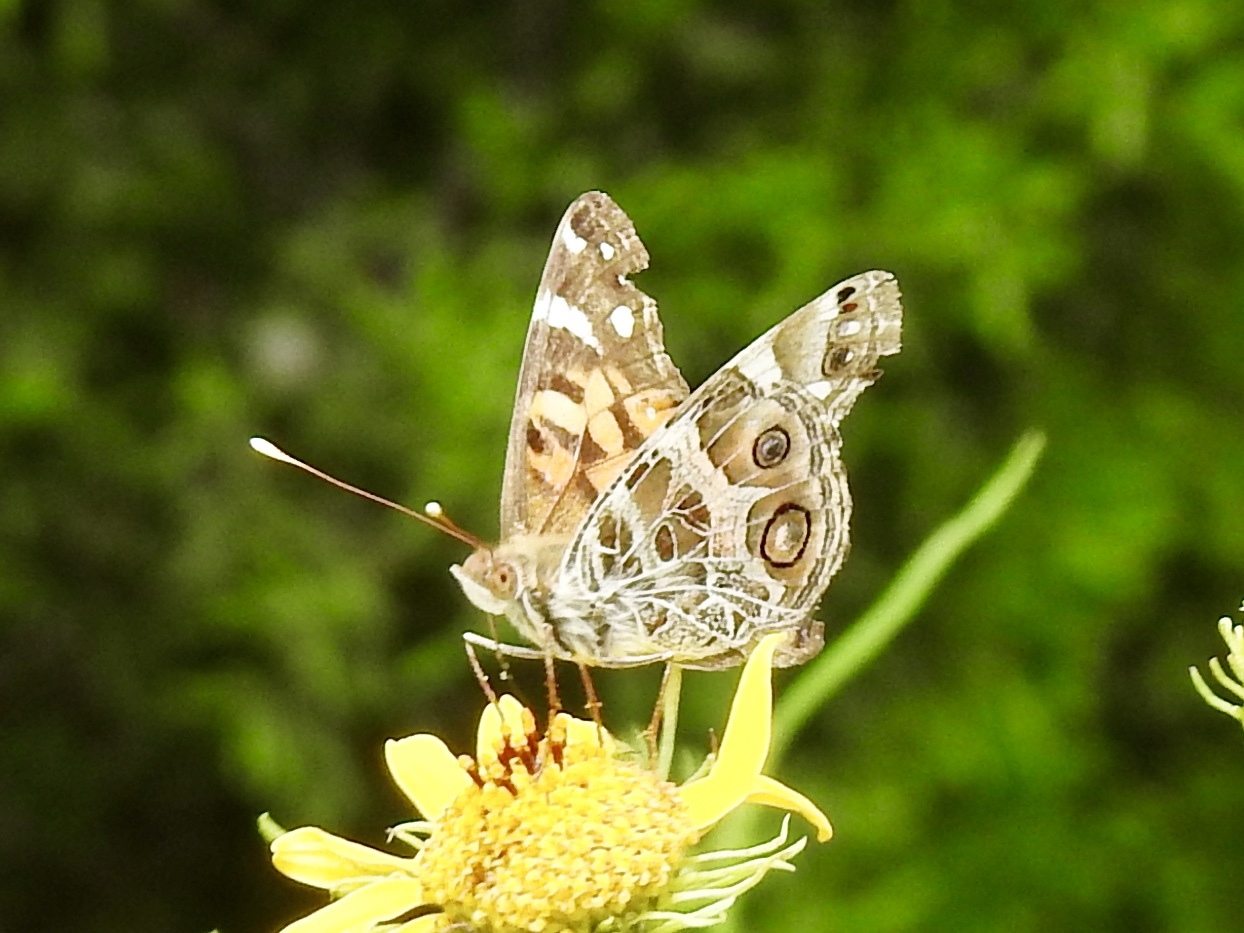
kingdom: Animalia
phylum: Arthropoda
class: Insecta
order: Lepidoptera
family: Nymphalidae
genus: Vanessa
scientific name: Vanessa virginiensis
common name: American lady
